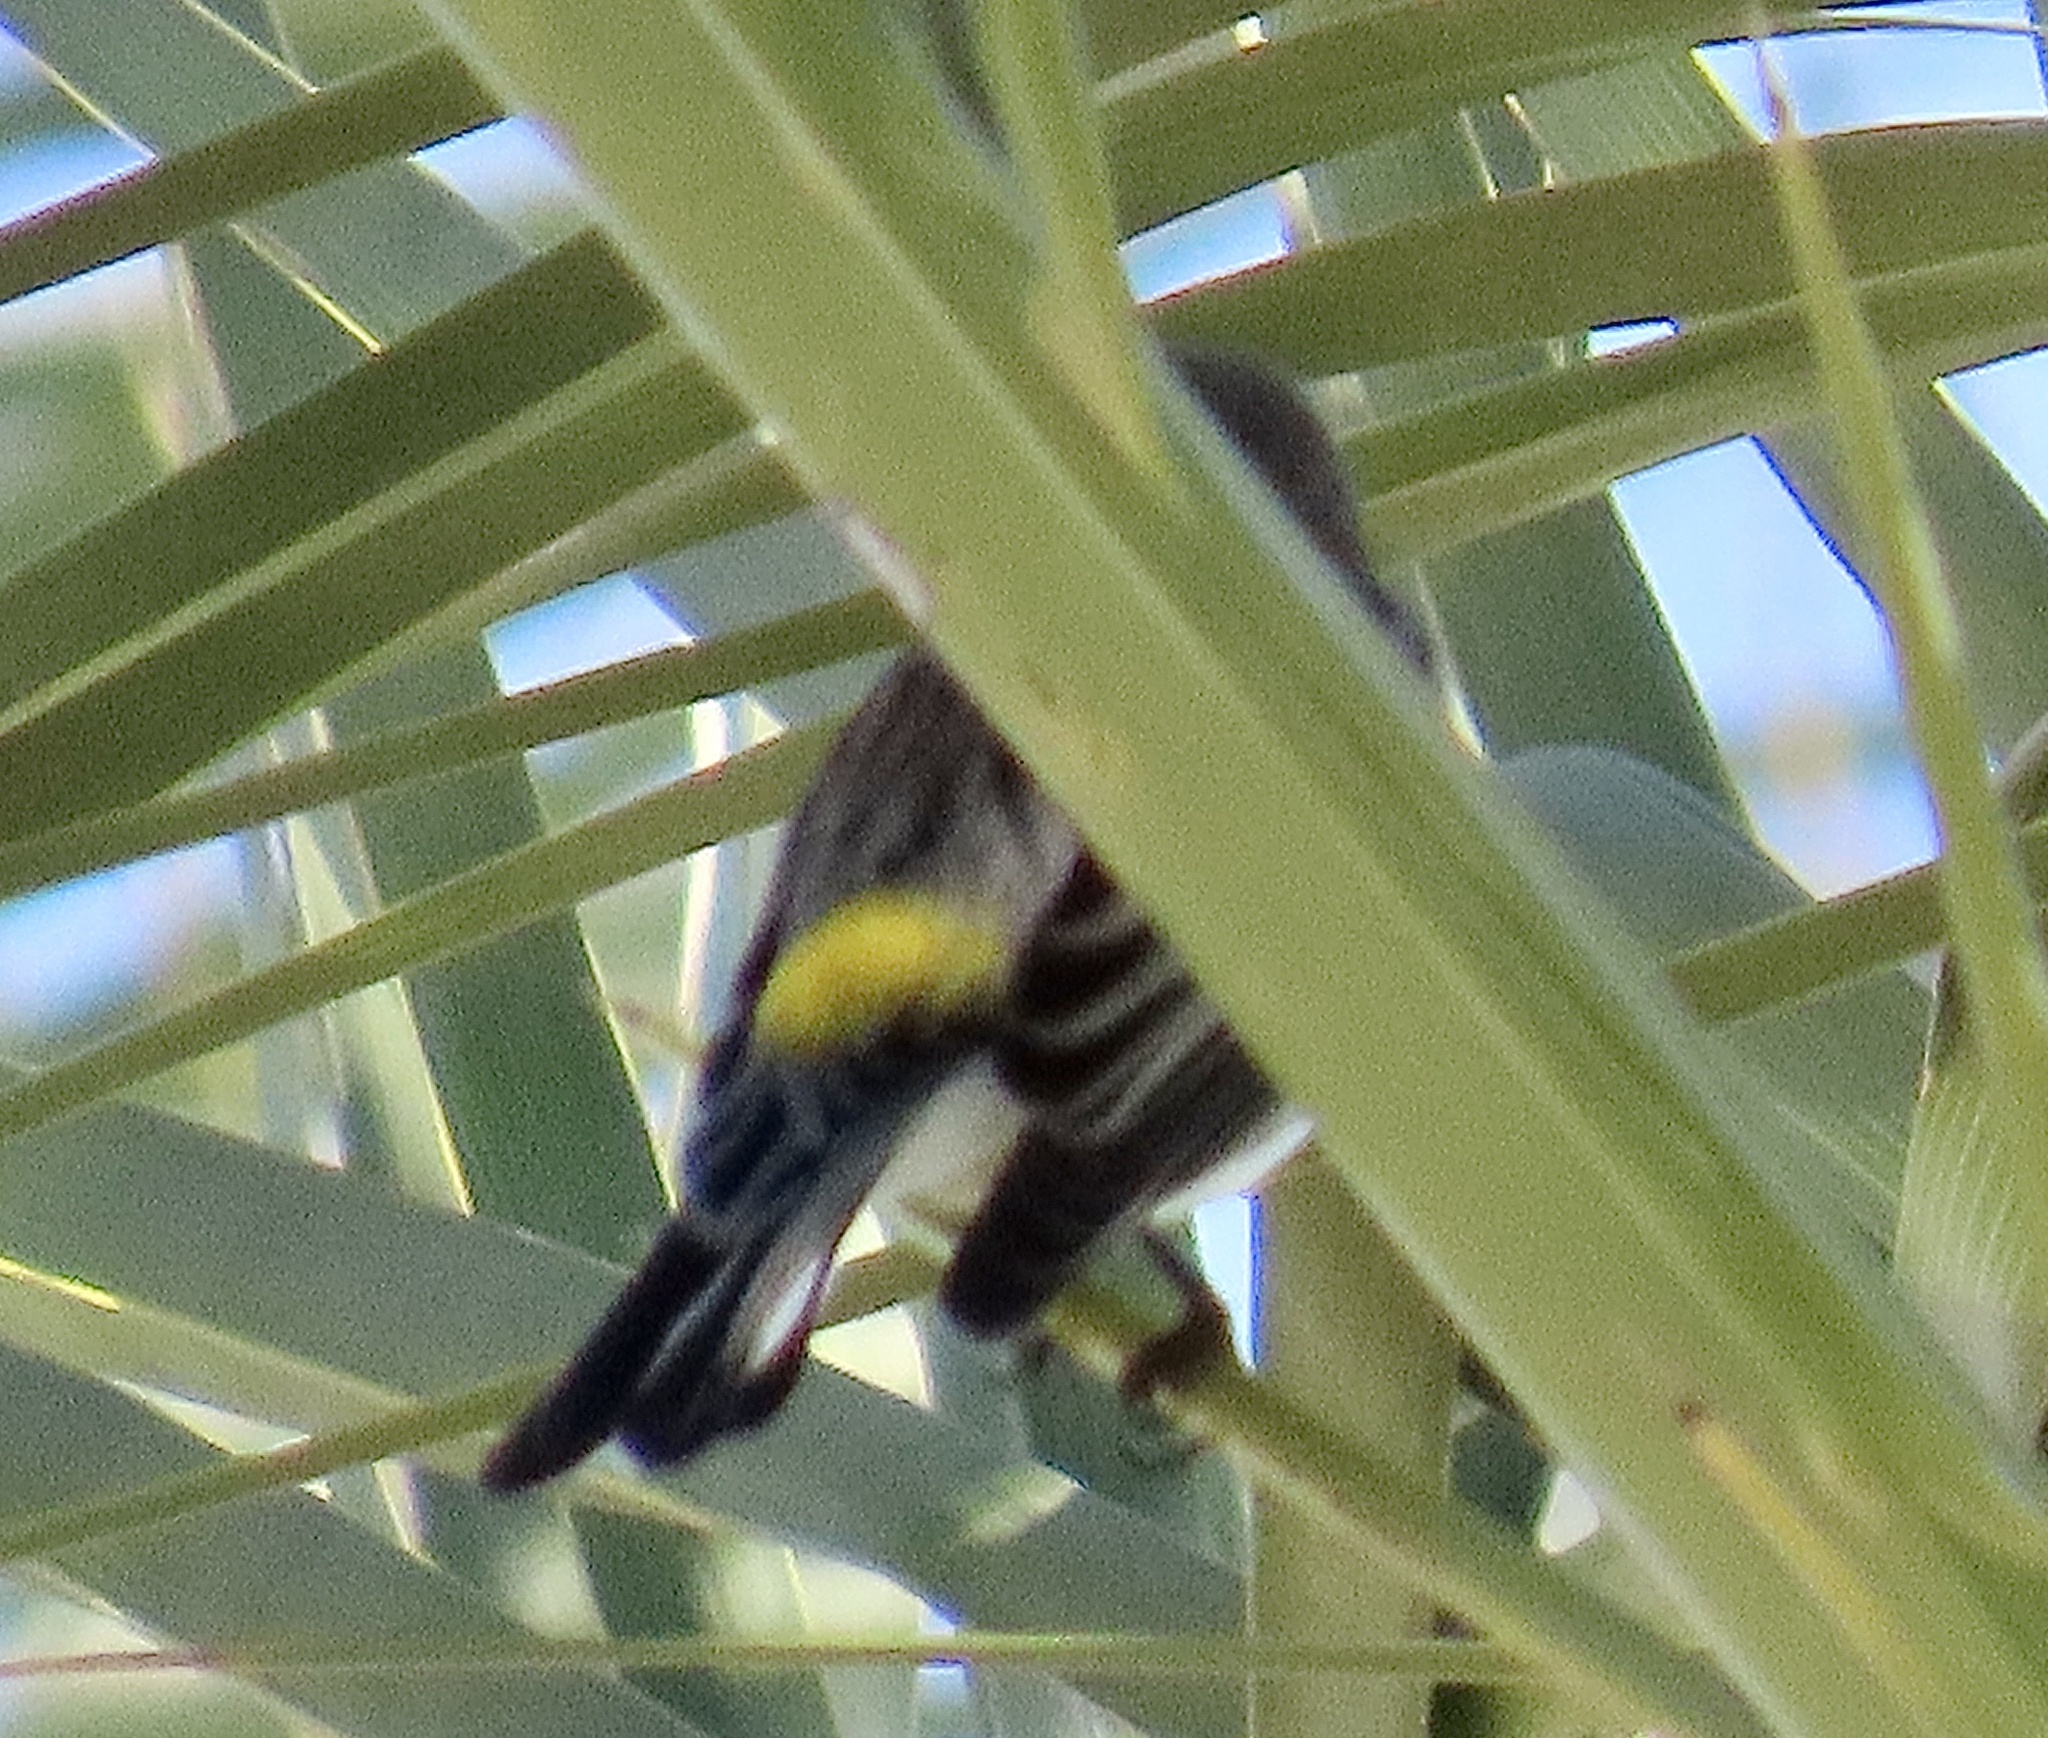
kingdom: Animalia
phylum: Chordata
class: Aves
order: Passeriformes
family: Parulidae
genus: Setophaga
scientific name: Setophaga coronata
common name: Myrtle warbler
